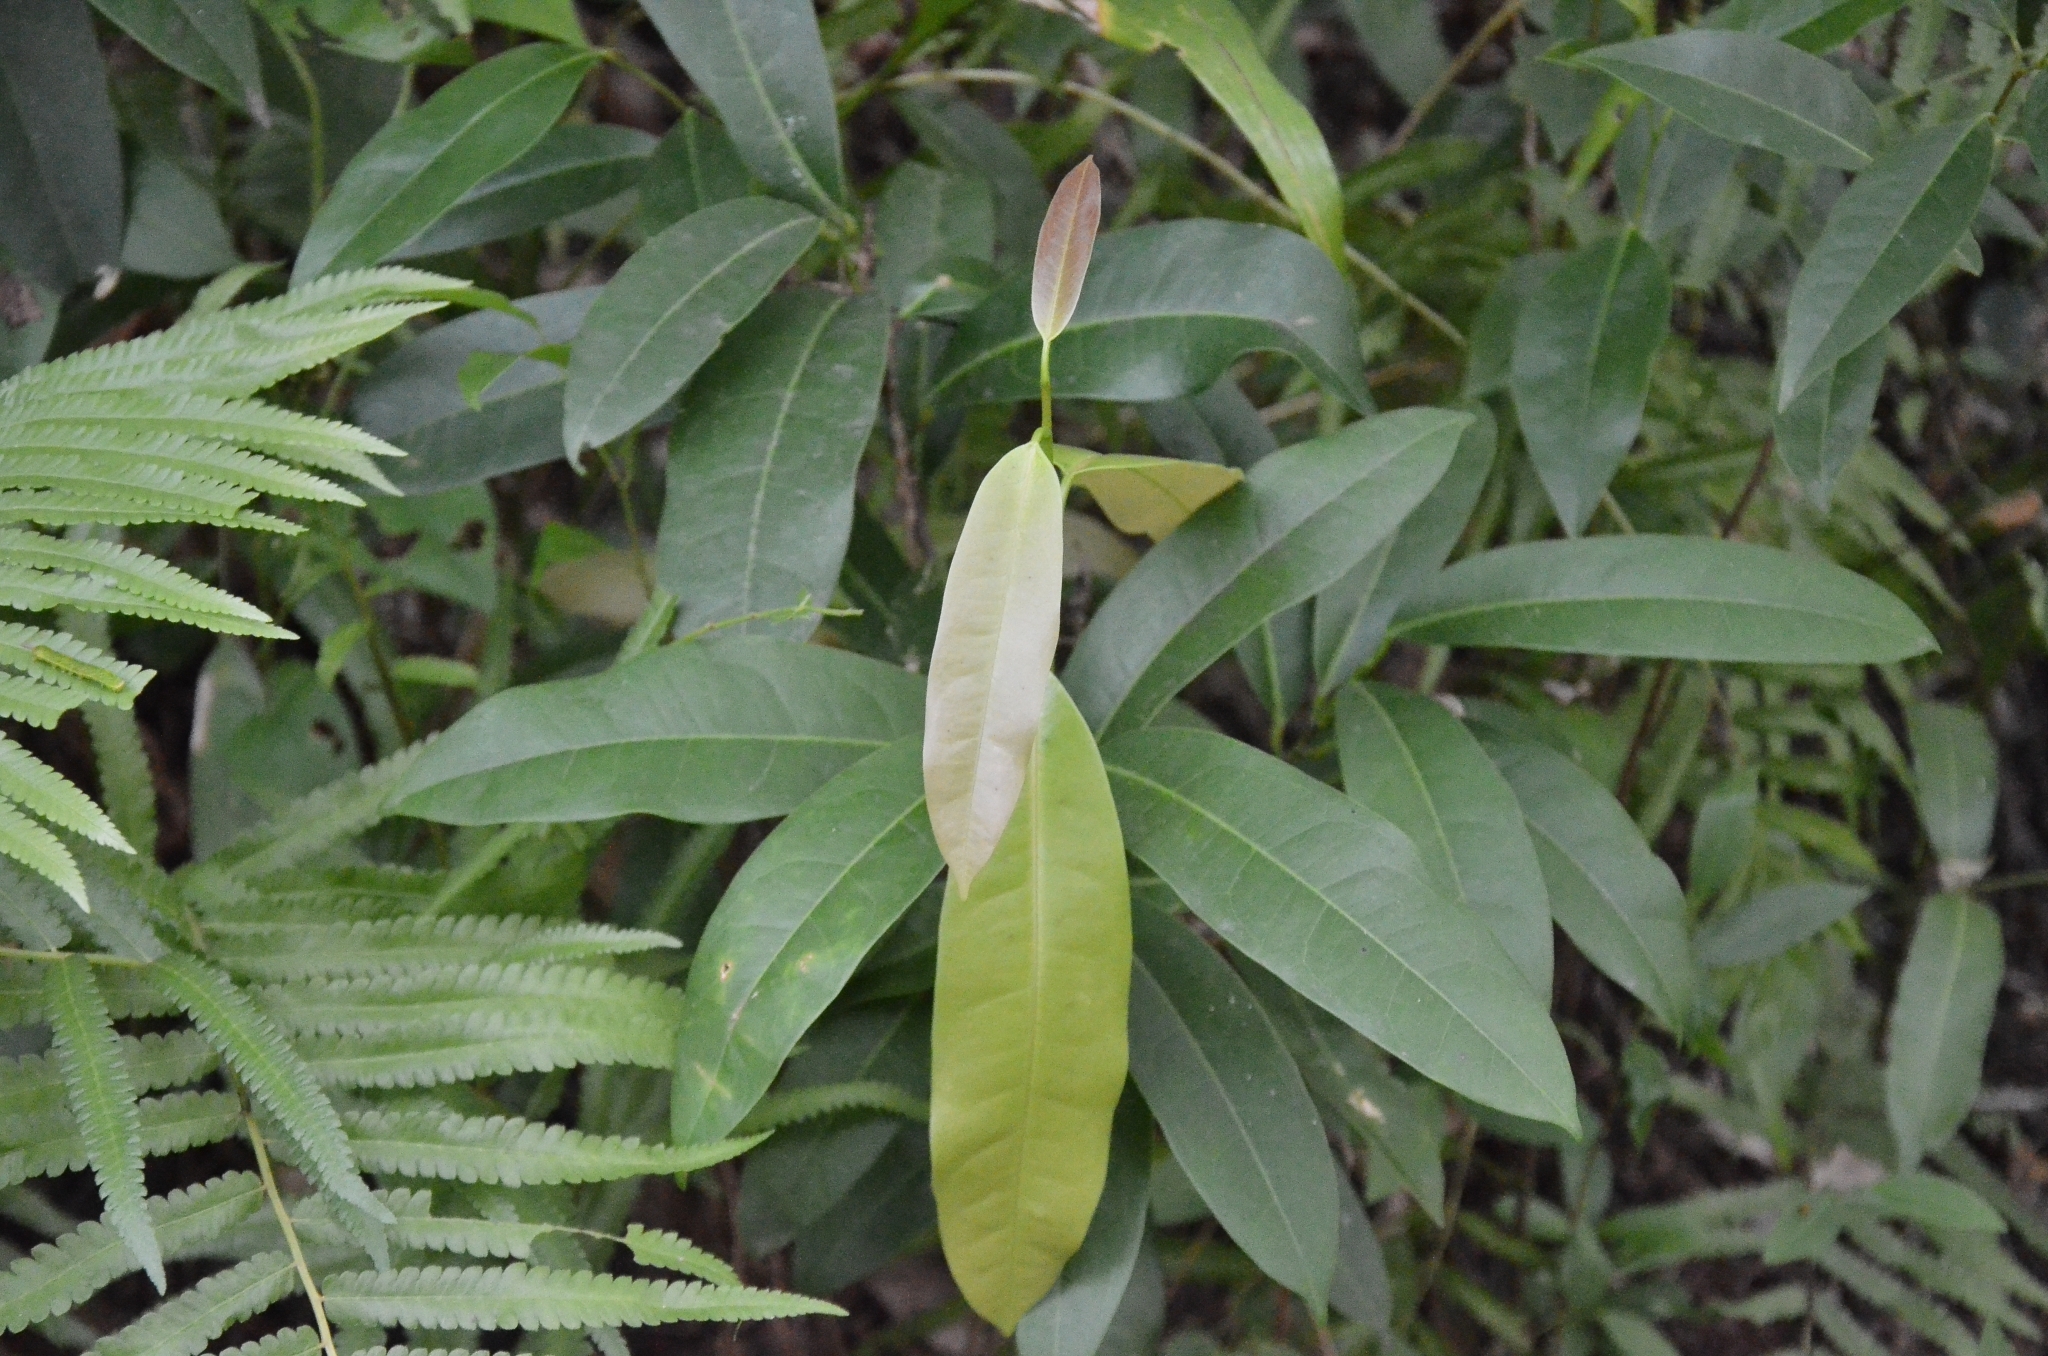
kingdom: Plantae
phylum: Tracheophyta
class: Magnoliopsida
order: Sapindales
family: Simaroubaceae
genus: Samadera
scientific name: Samadera indica
